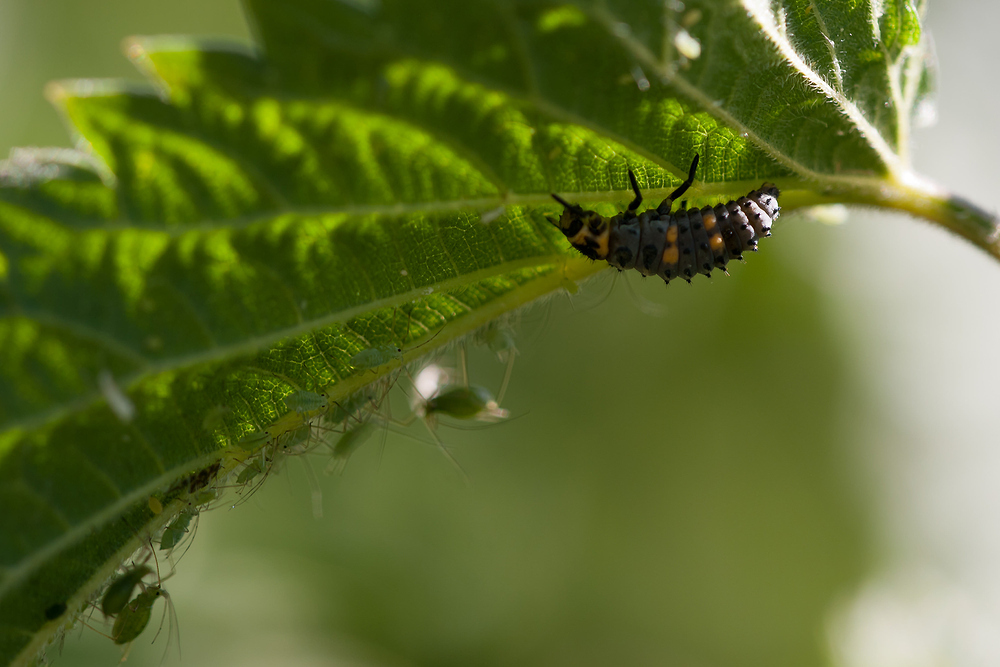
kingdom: Animalia
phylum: Arthropoda
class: Insecta
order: Coleoptera
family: Coccinellidae
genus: Coccinella
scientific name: Coccinella septempunctata
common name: Sevenspotted lady beetle
